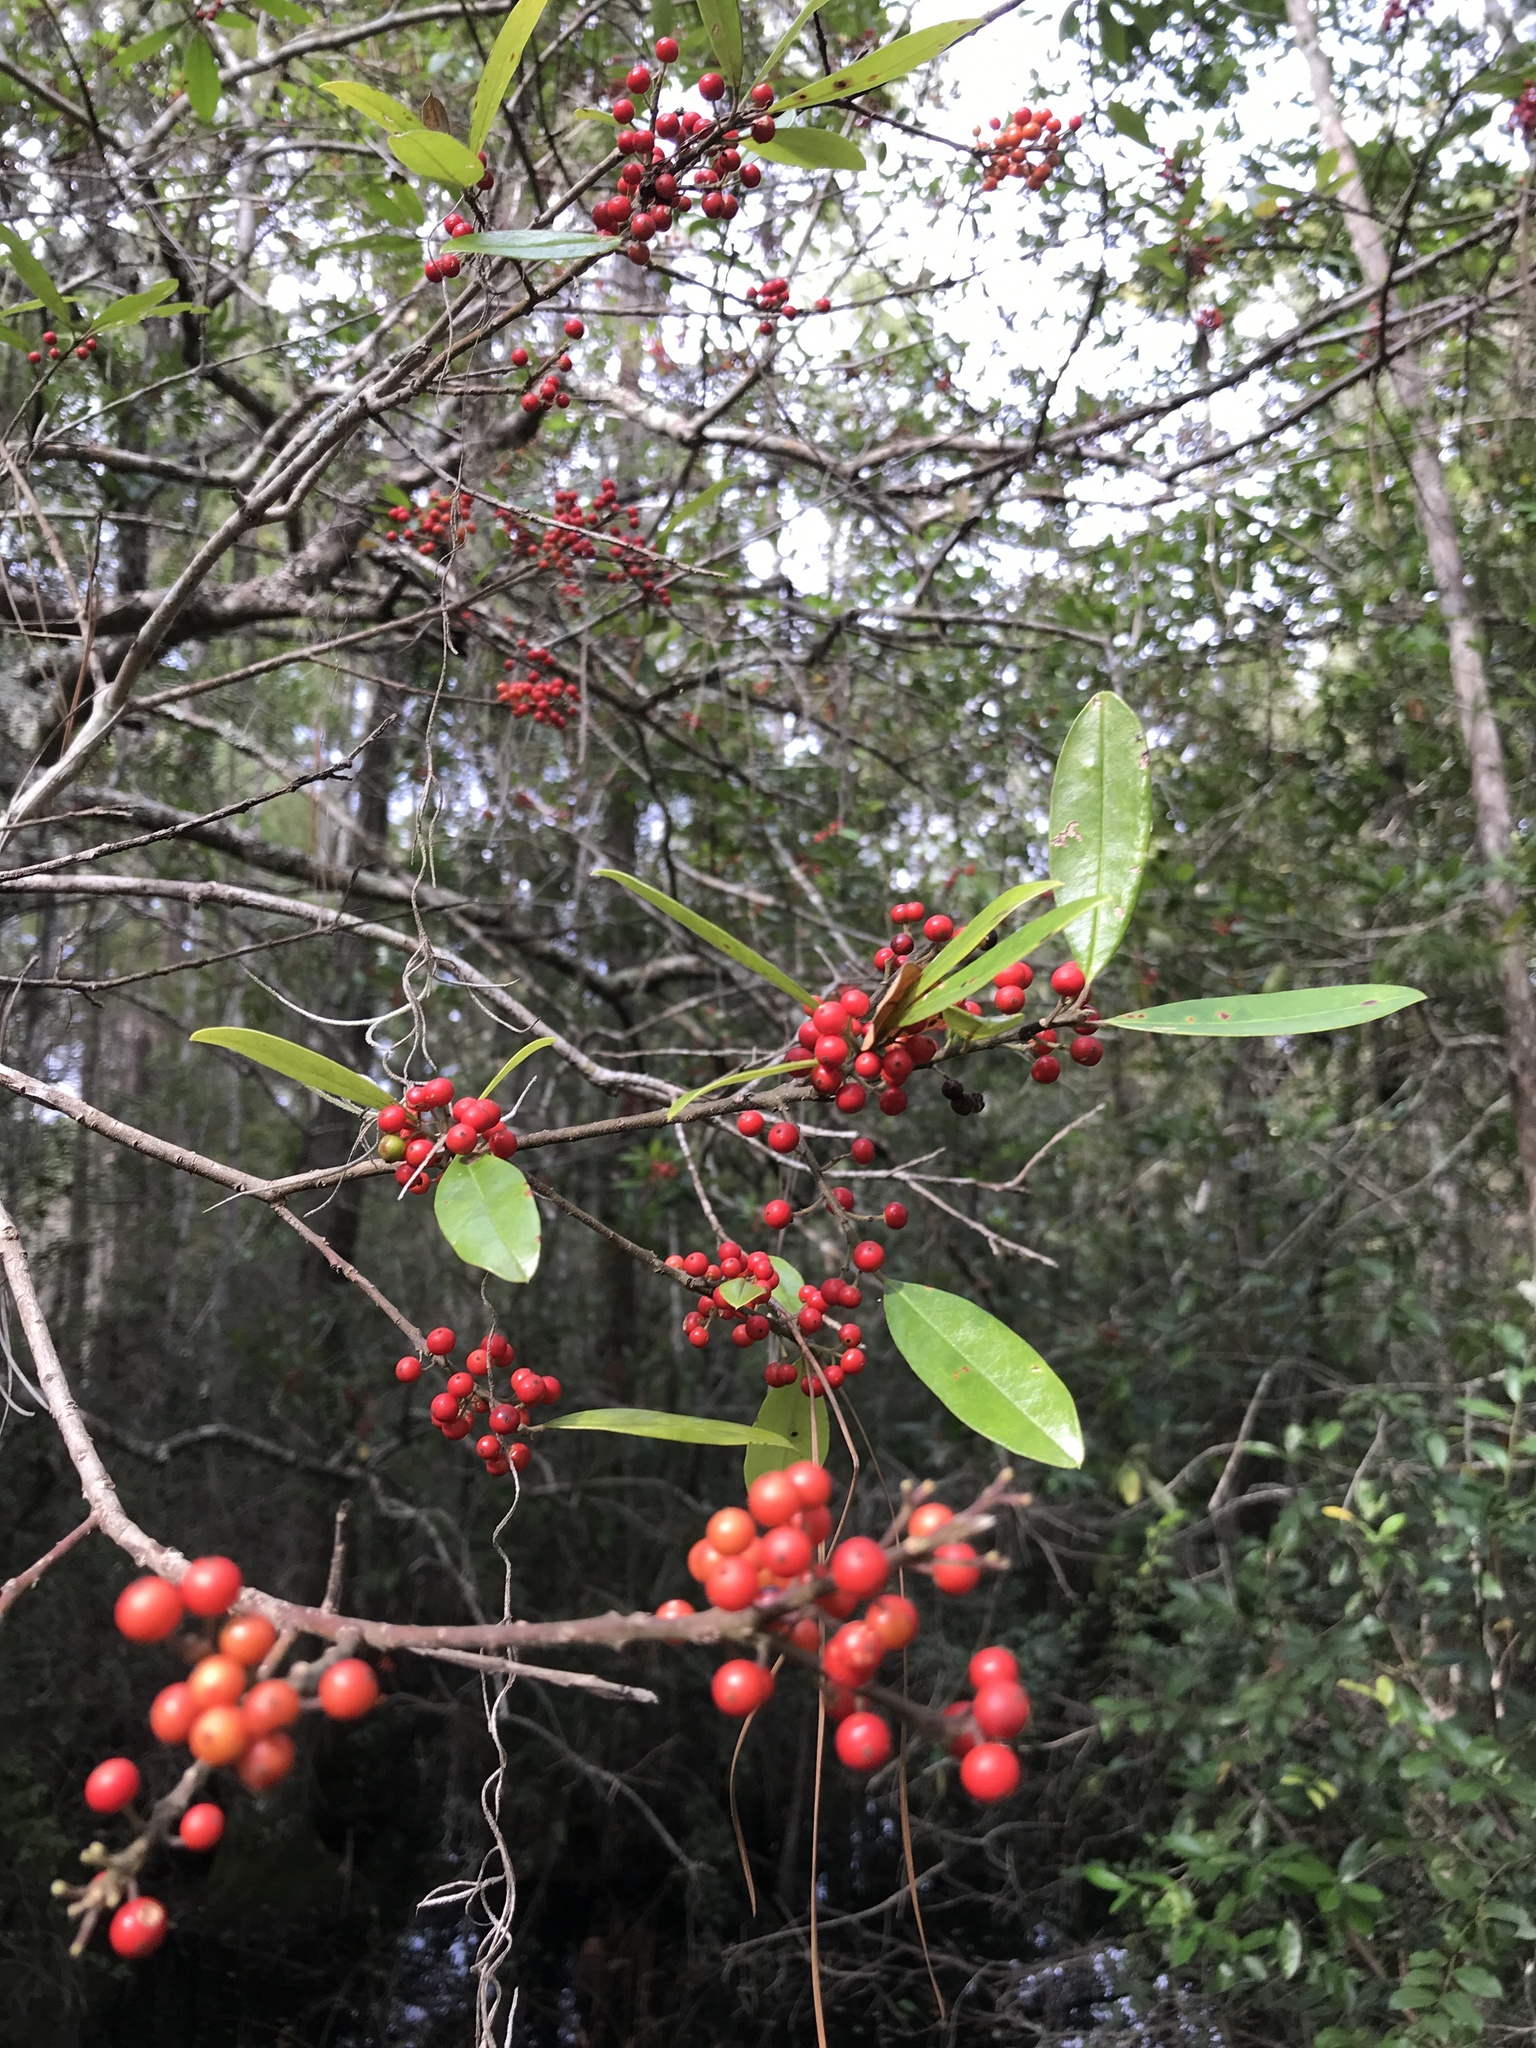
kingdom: Plantae
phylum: Tracheophyta
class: Magnoliopsida
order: Aquifoliales
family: Aquifoliaceae
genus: Ilex
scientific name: Ilex cassine
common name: Dahoon
